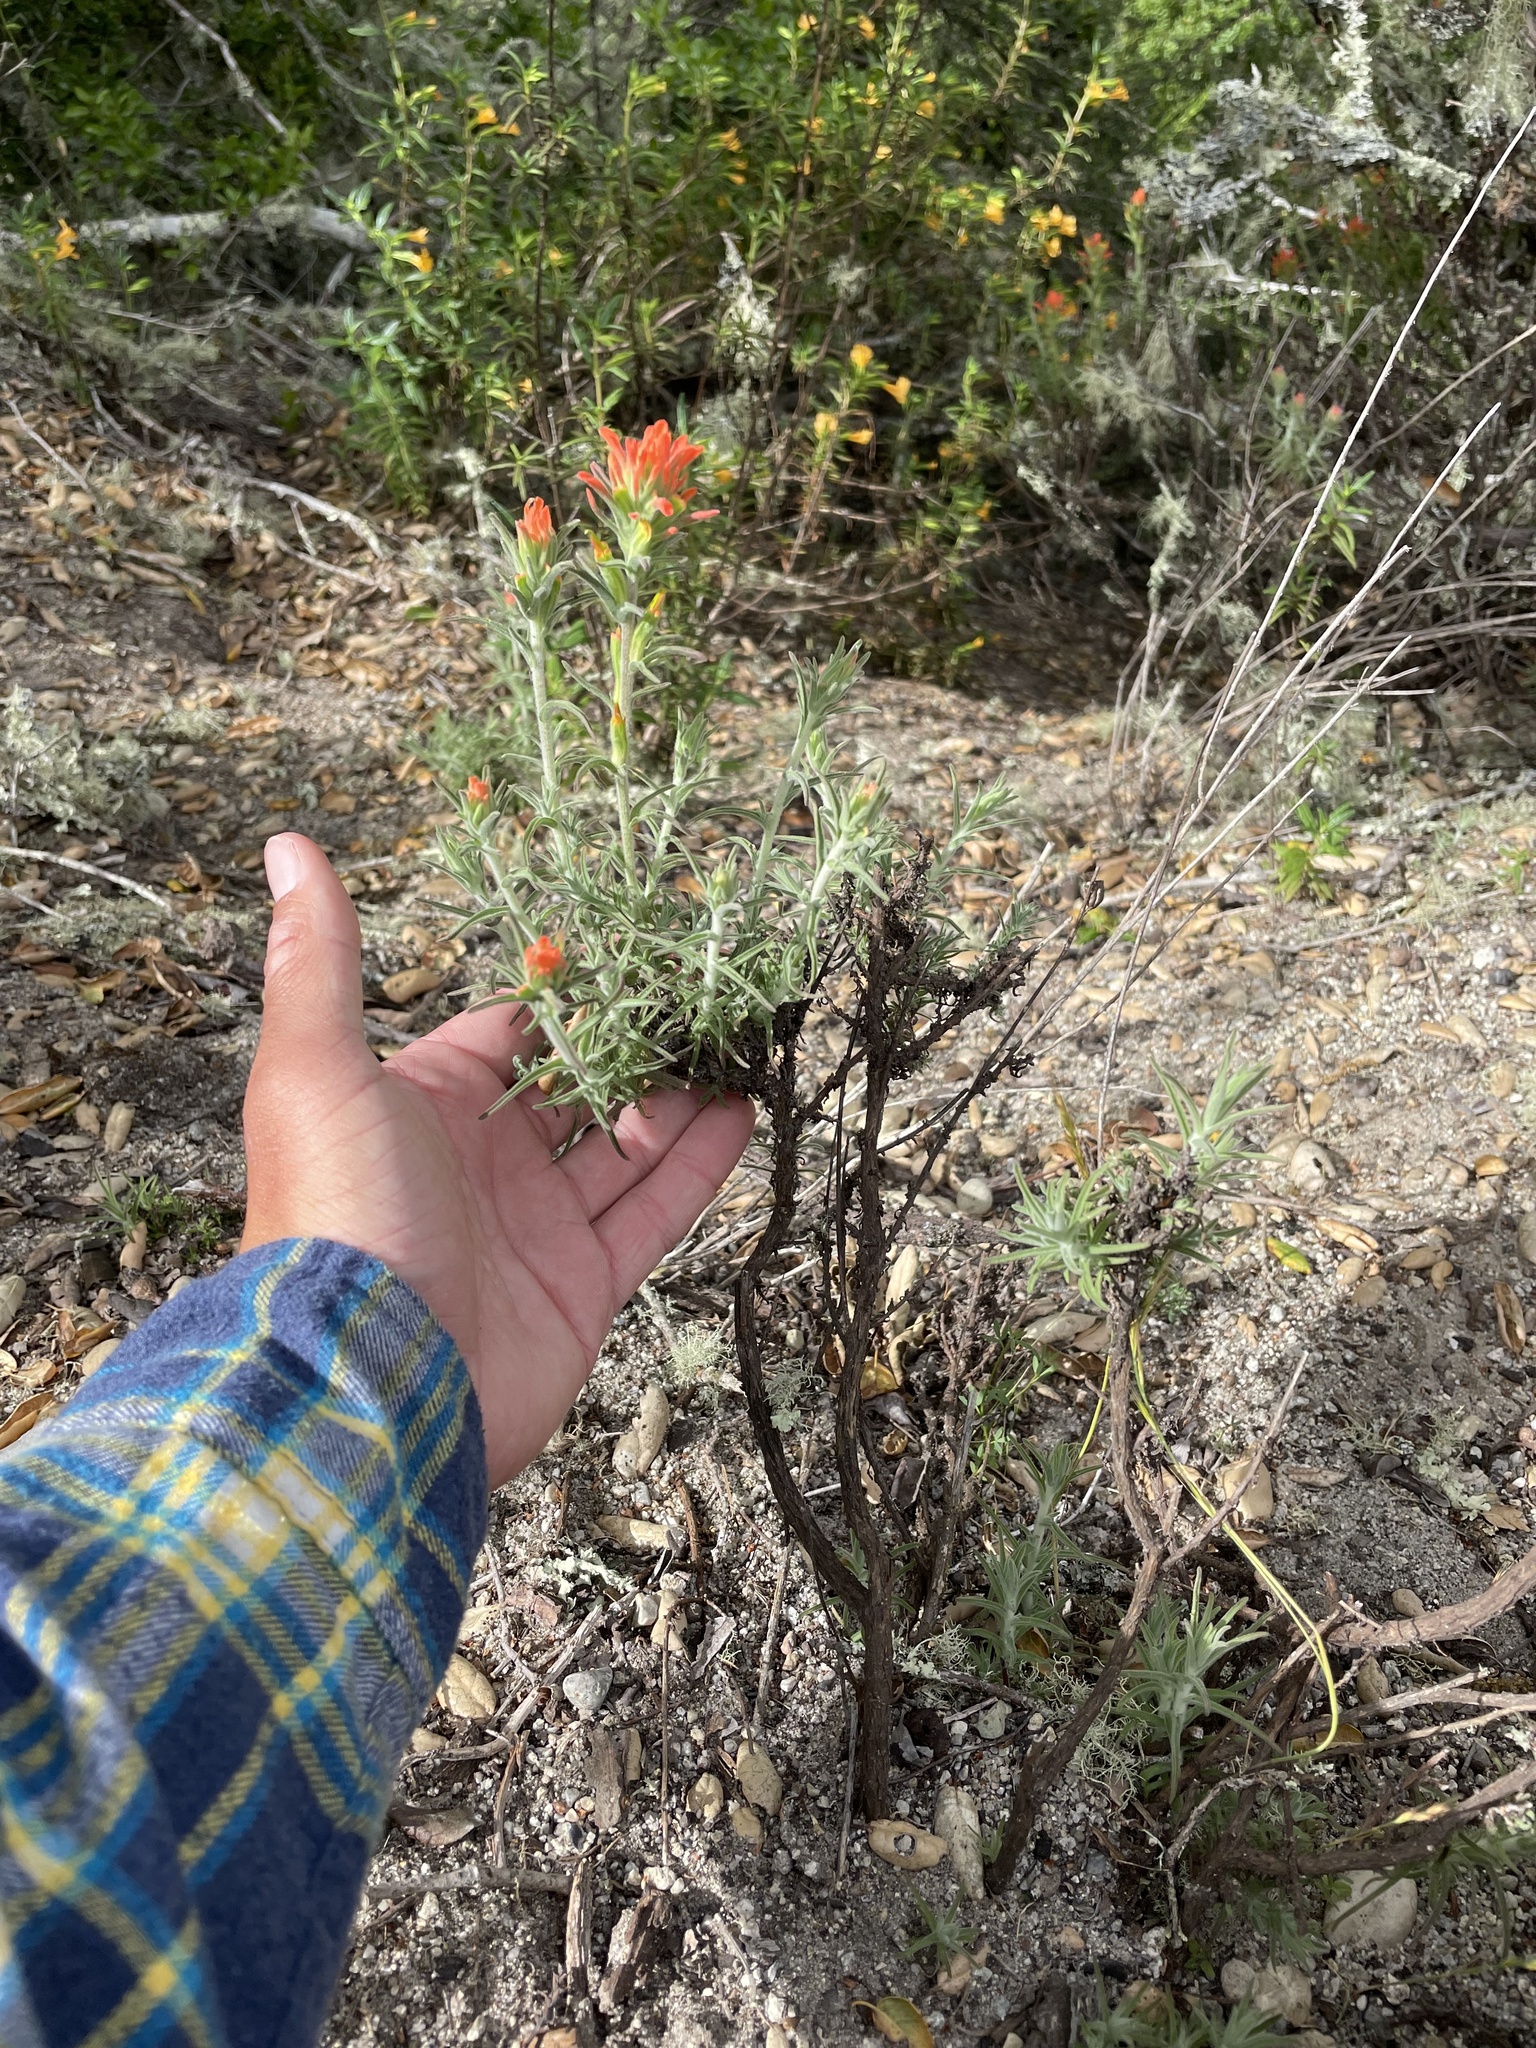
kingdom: Plantae
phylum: Tracheophyta
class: Magnoliopsida
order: Lamiales
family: Orobanchaceae
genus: Castilleja
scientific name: Castilleja foliolosa
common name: Woolly indian paintbrush
